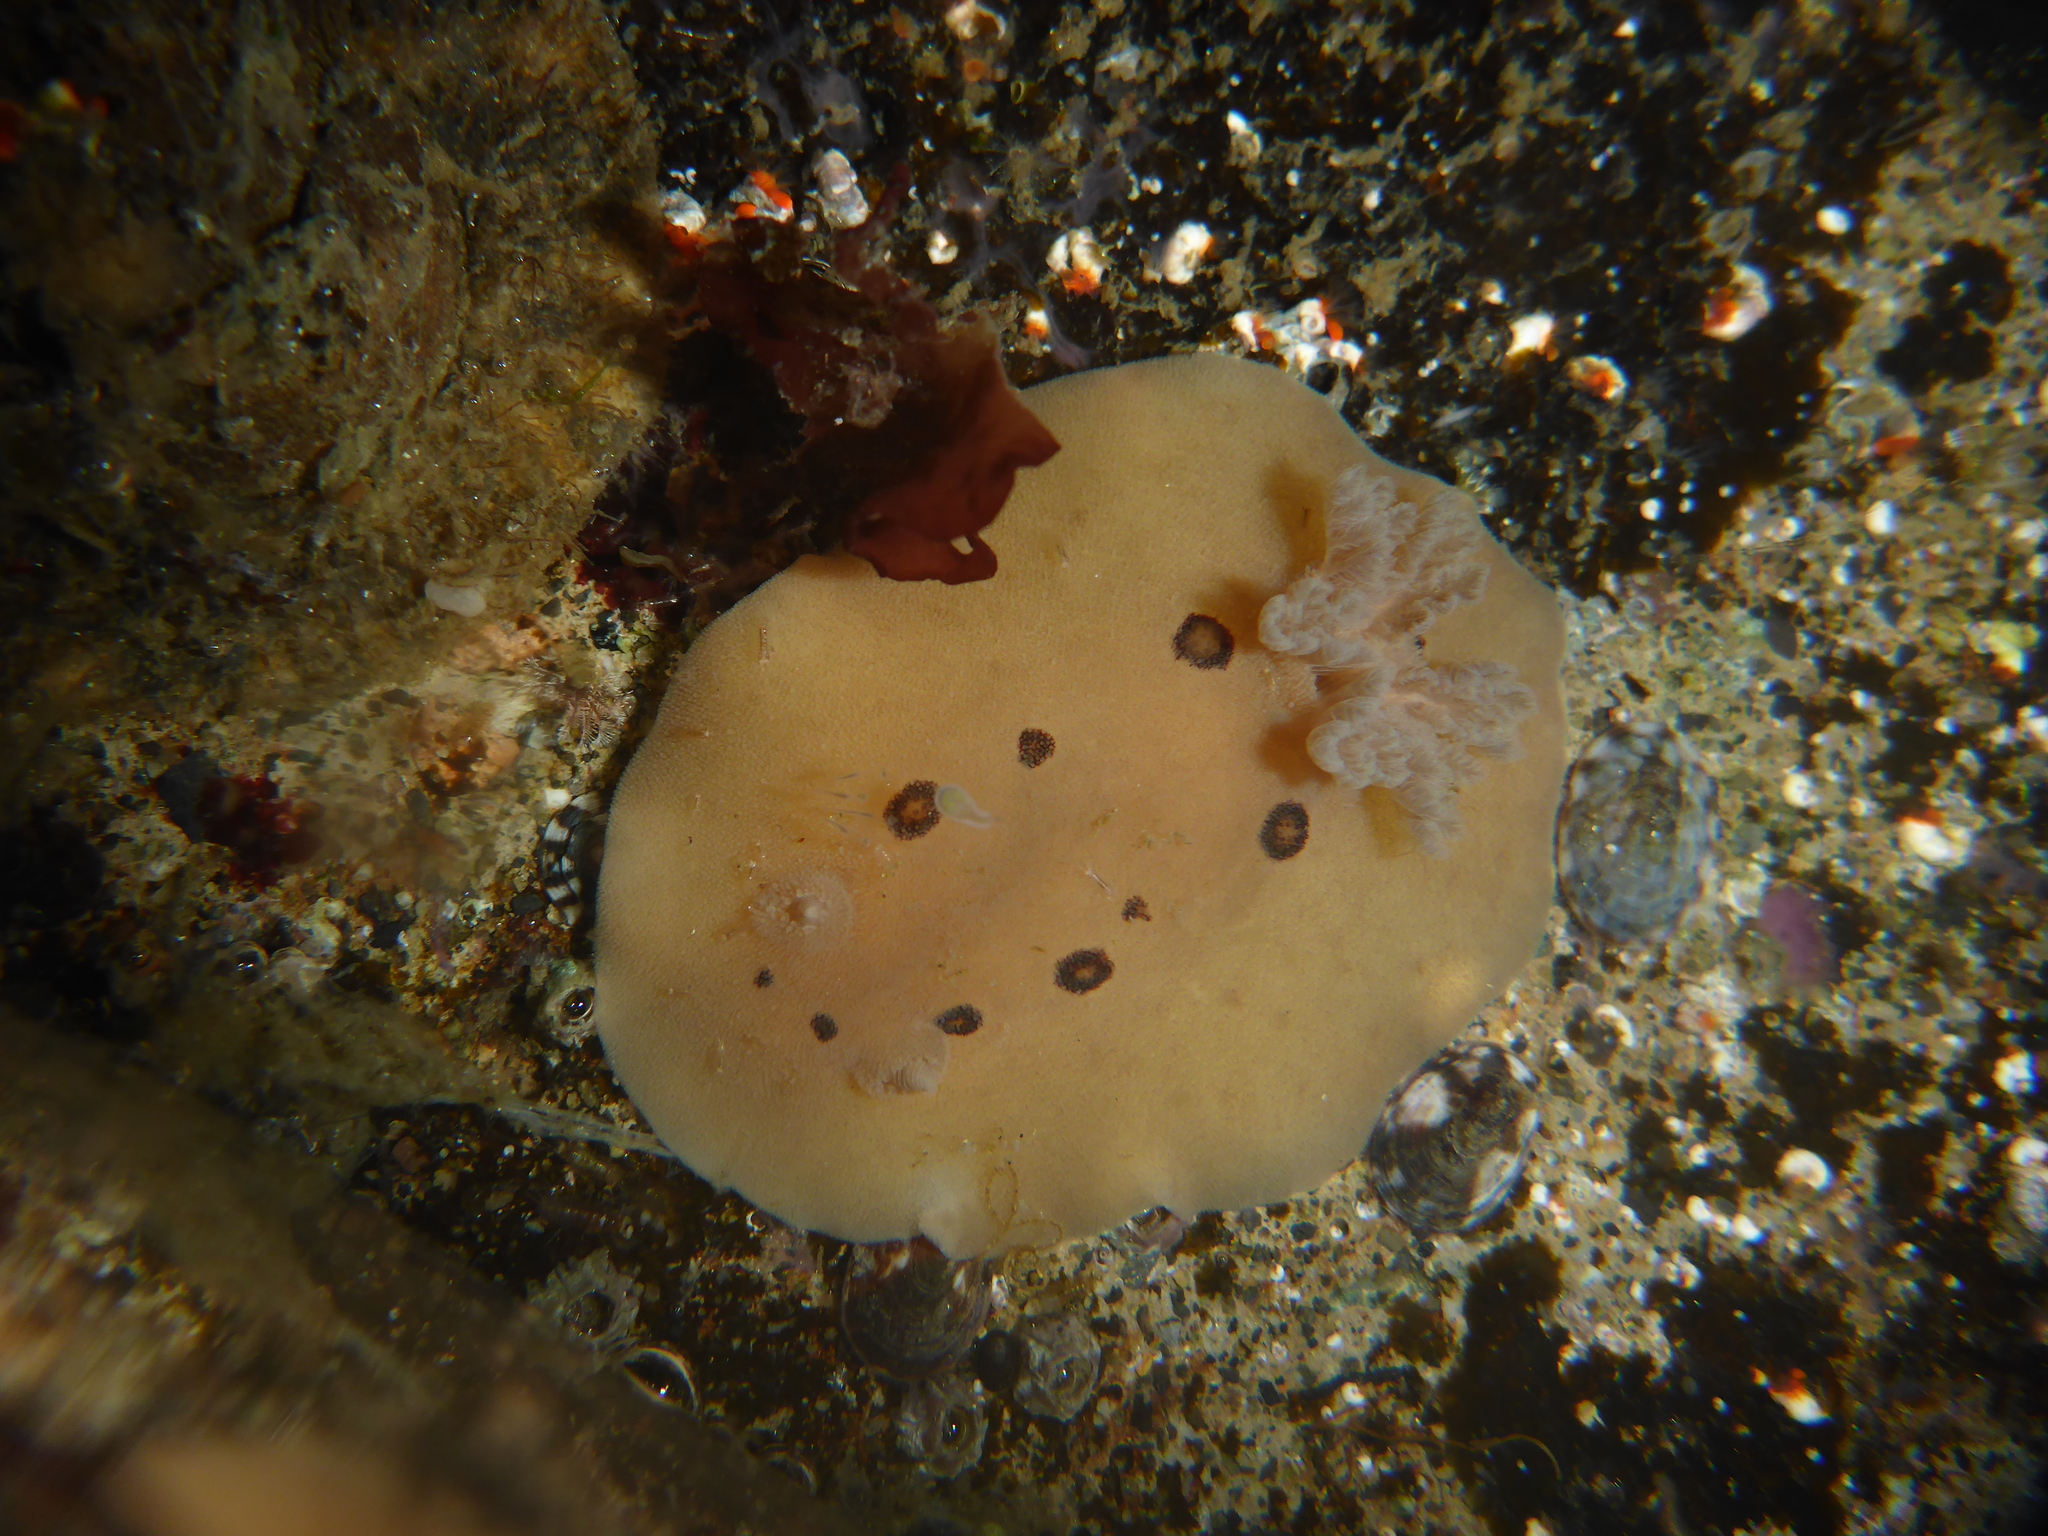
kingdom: Animalia
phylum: Mollusca
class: Gastropoda
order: Nudibranchia
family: Discodorididae
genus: Diaulula
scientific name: Diaulula sandiegensis
